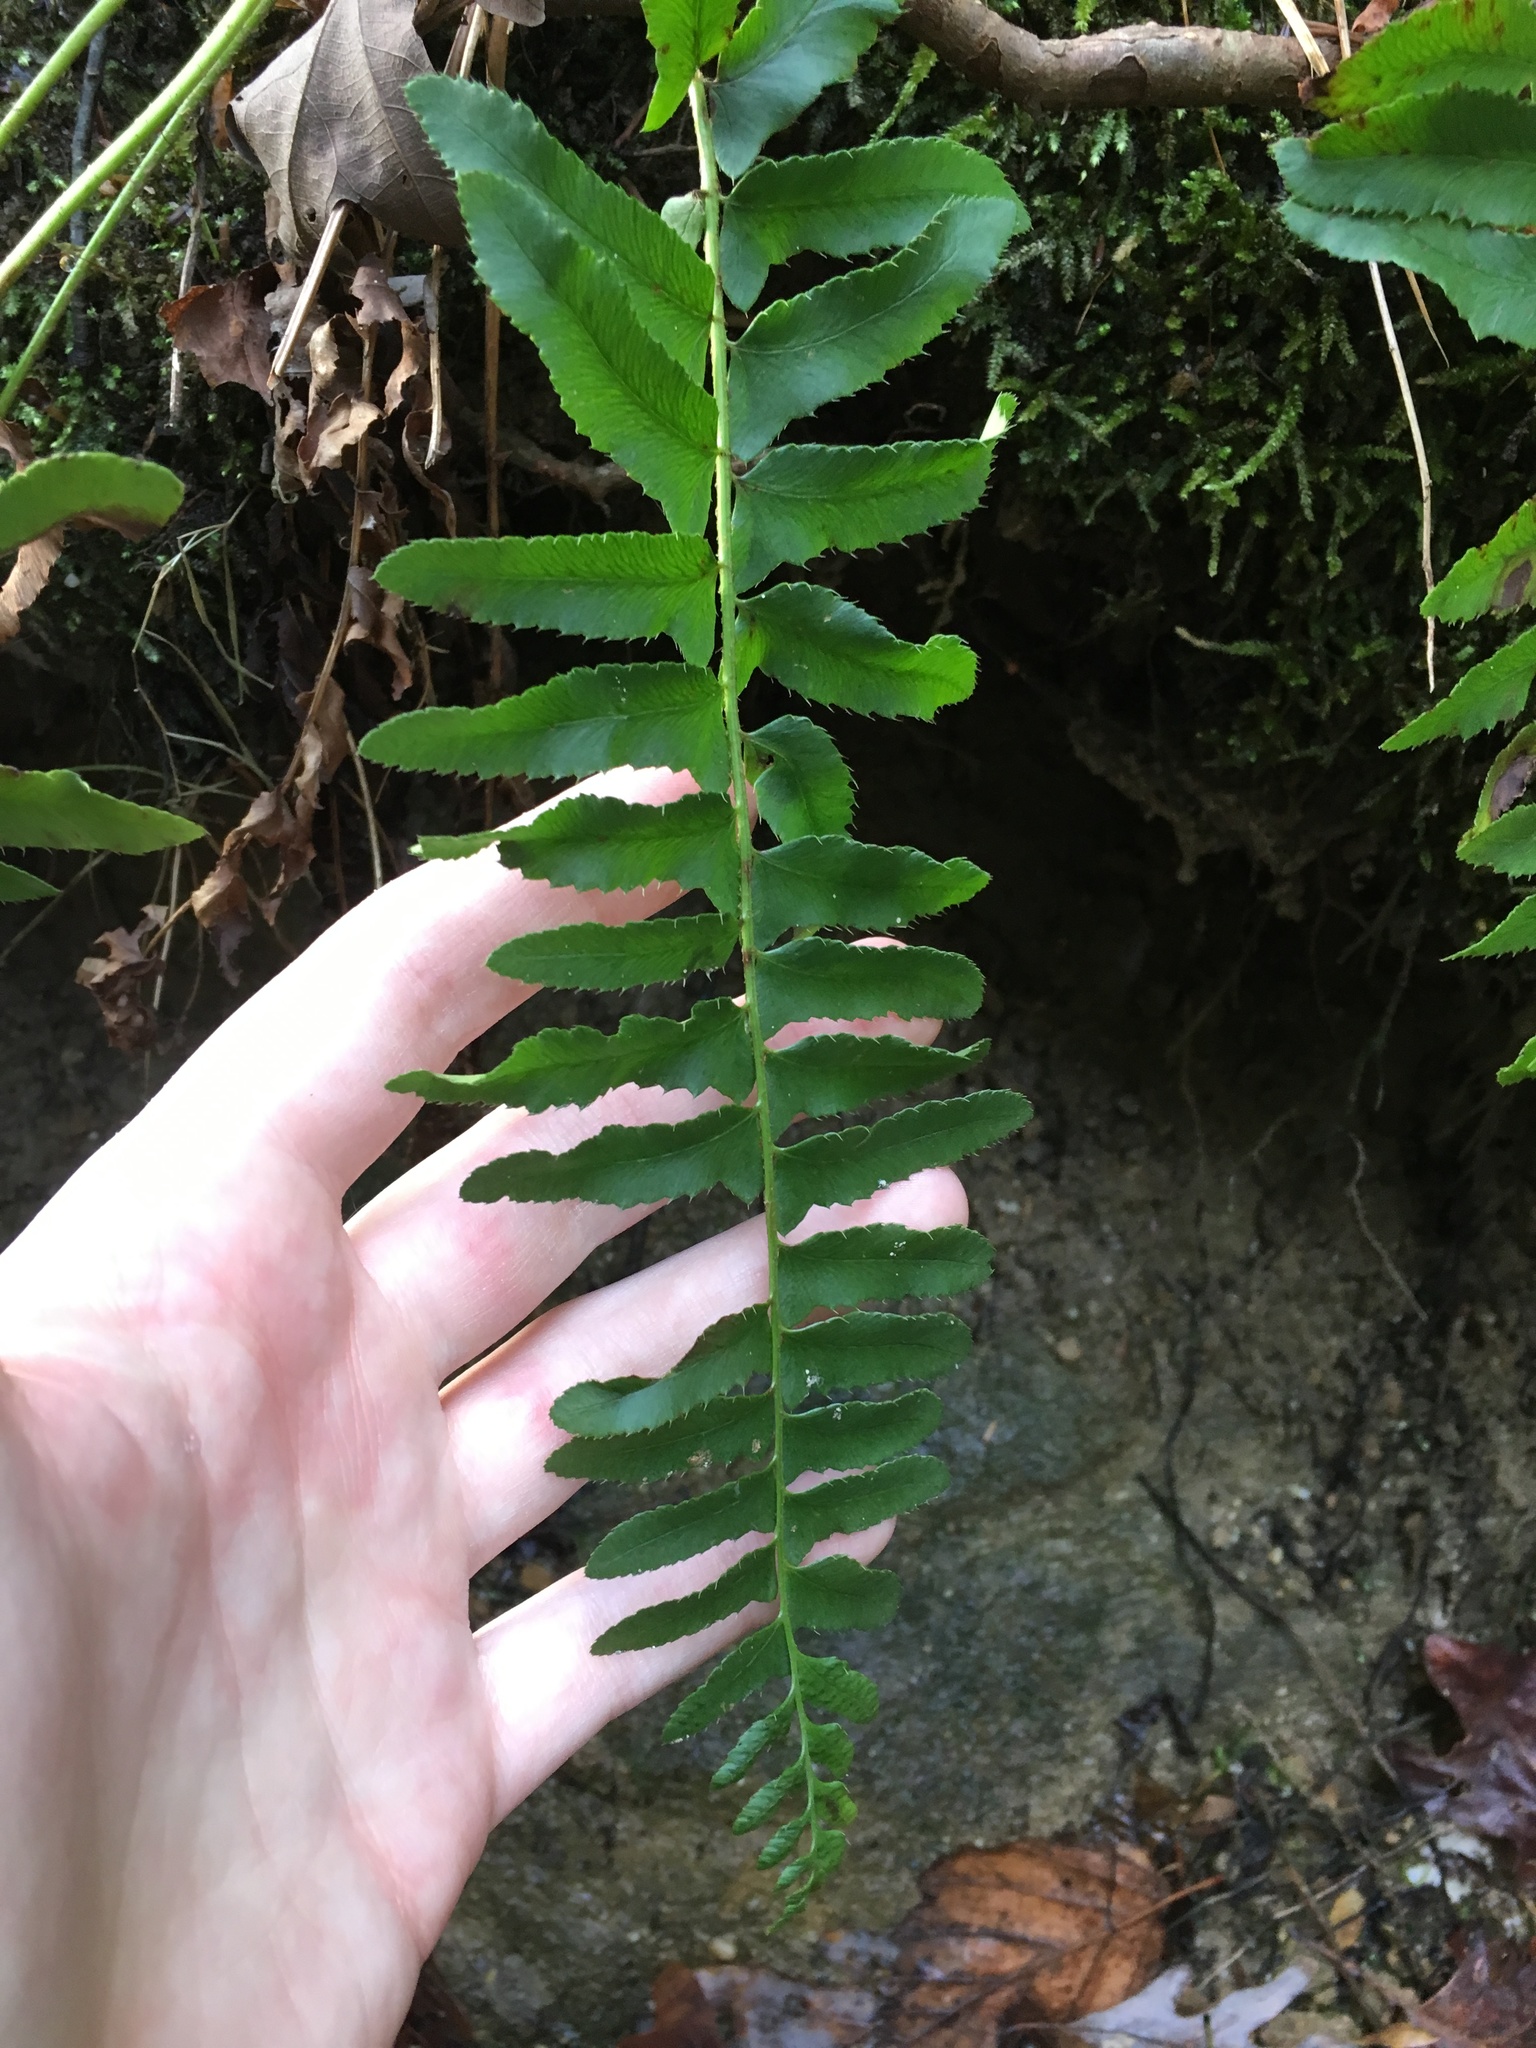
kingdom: Plantae
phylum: Tracheophyta
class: Polypodiopsida
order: Polypodiales
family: Dryopteridaceae
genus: Polystichum
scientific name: Polystichum acrostichoides
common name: Christmas fern
